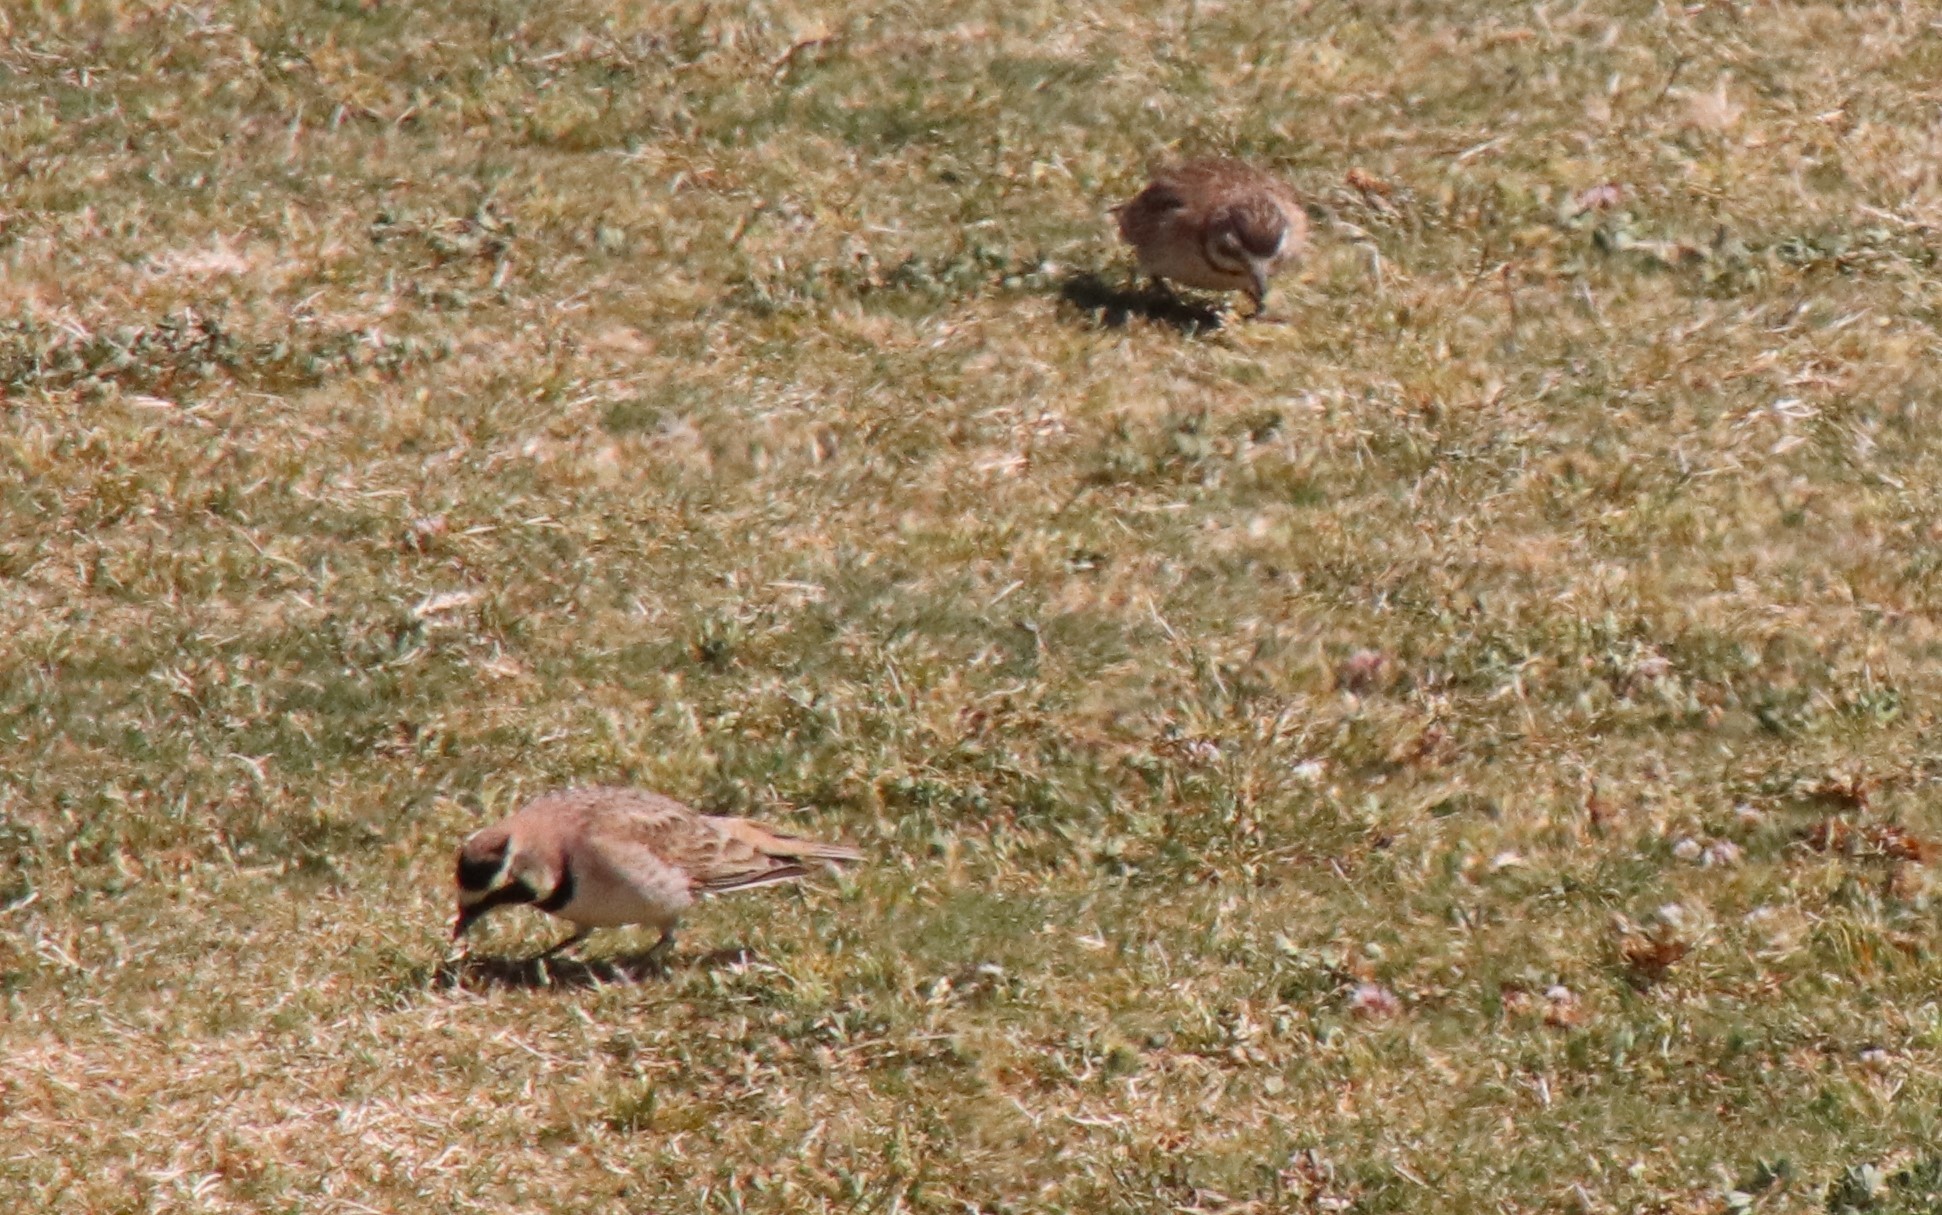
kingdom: Animalia
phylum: Chordata
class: Aves
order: Passeriformes
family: Alaudidae
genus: Eremophila
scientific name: Eremophila alpestris
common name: Horned lark
